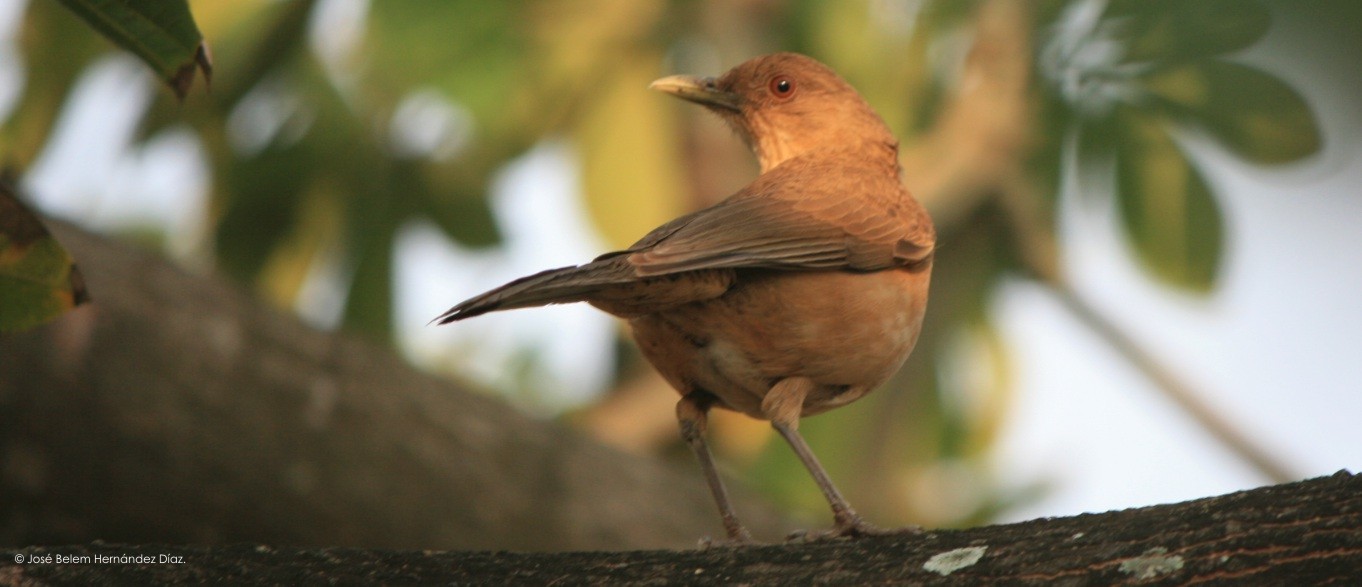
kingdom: Animalia
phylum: Chordata
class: Aves
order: Passeriformes
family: Turdidae
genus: Turdus
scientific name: Turdus grayi
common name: Clay-colored thrush
